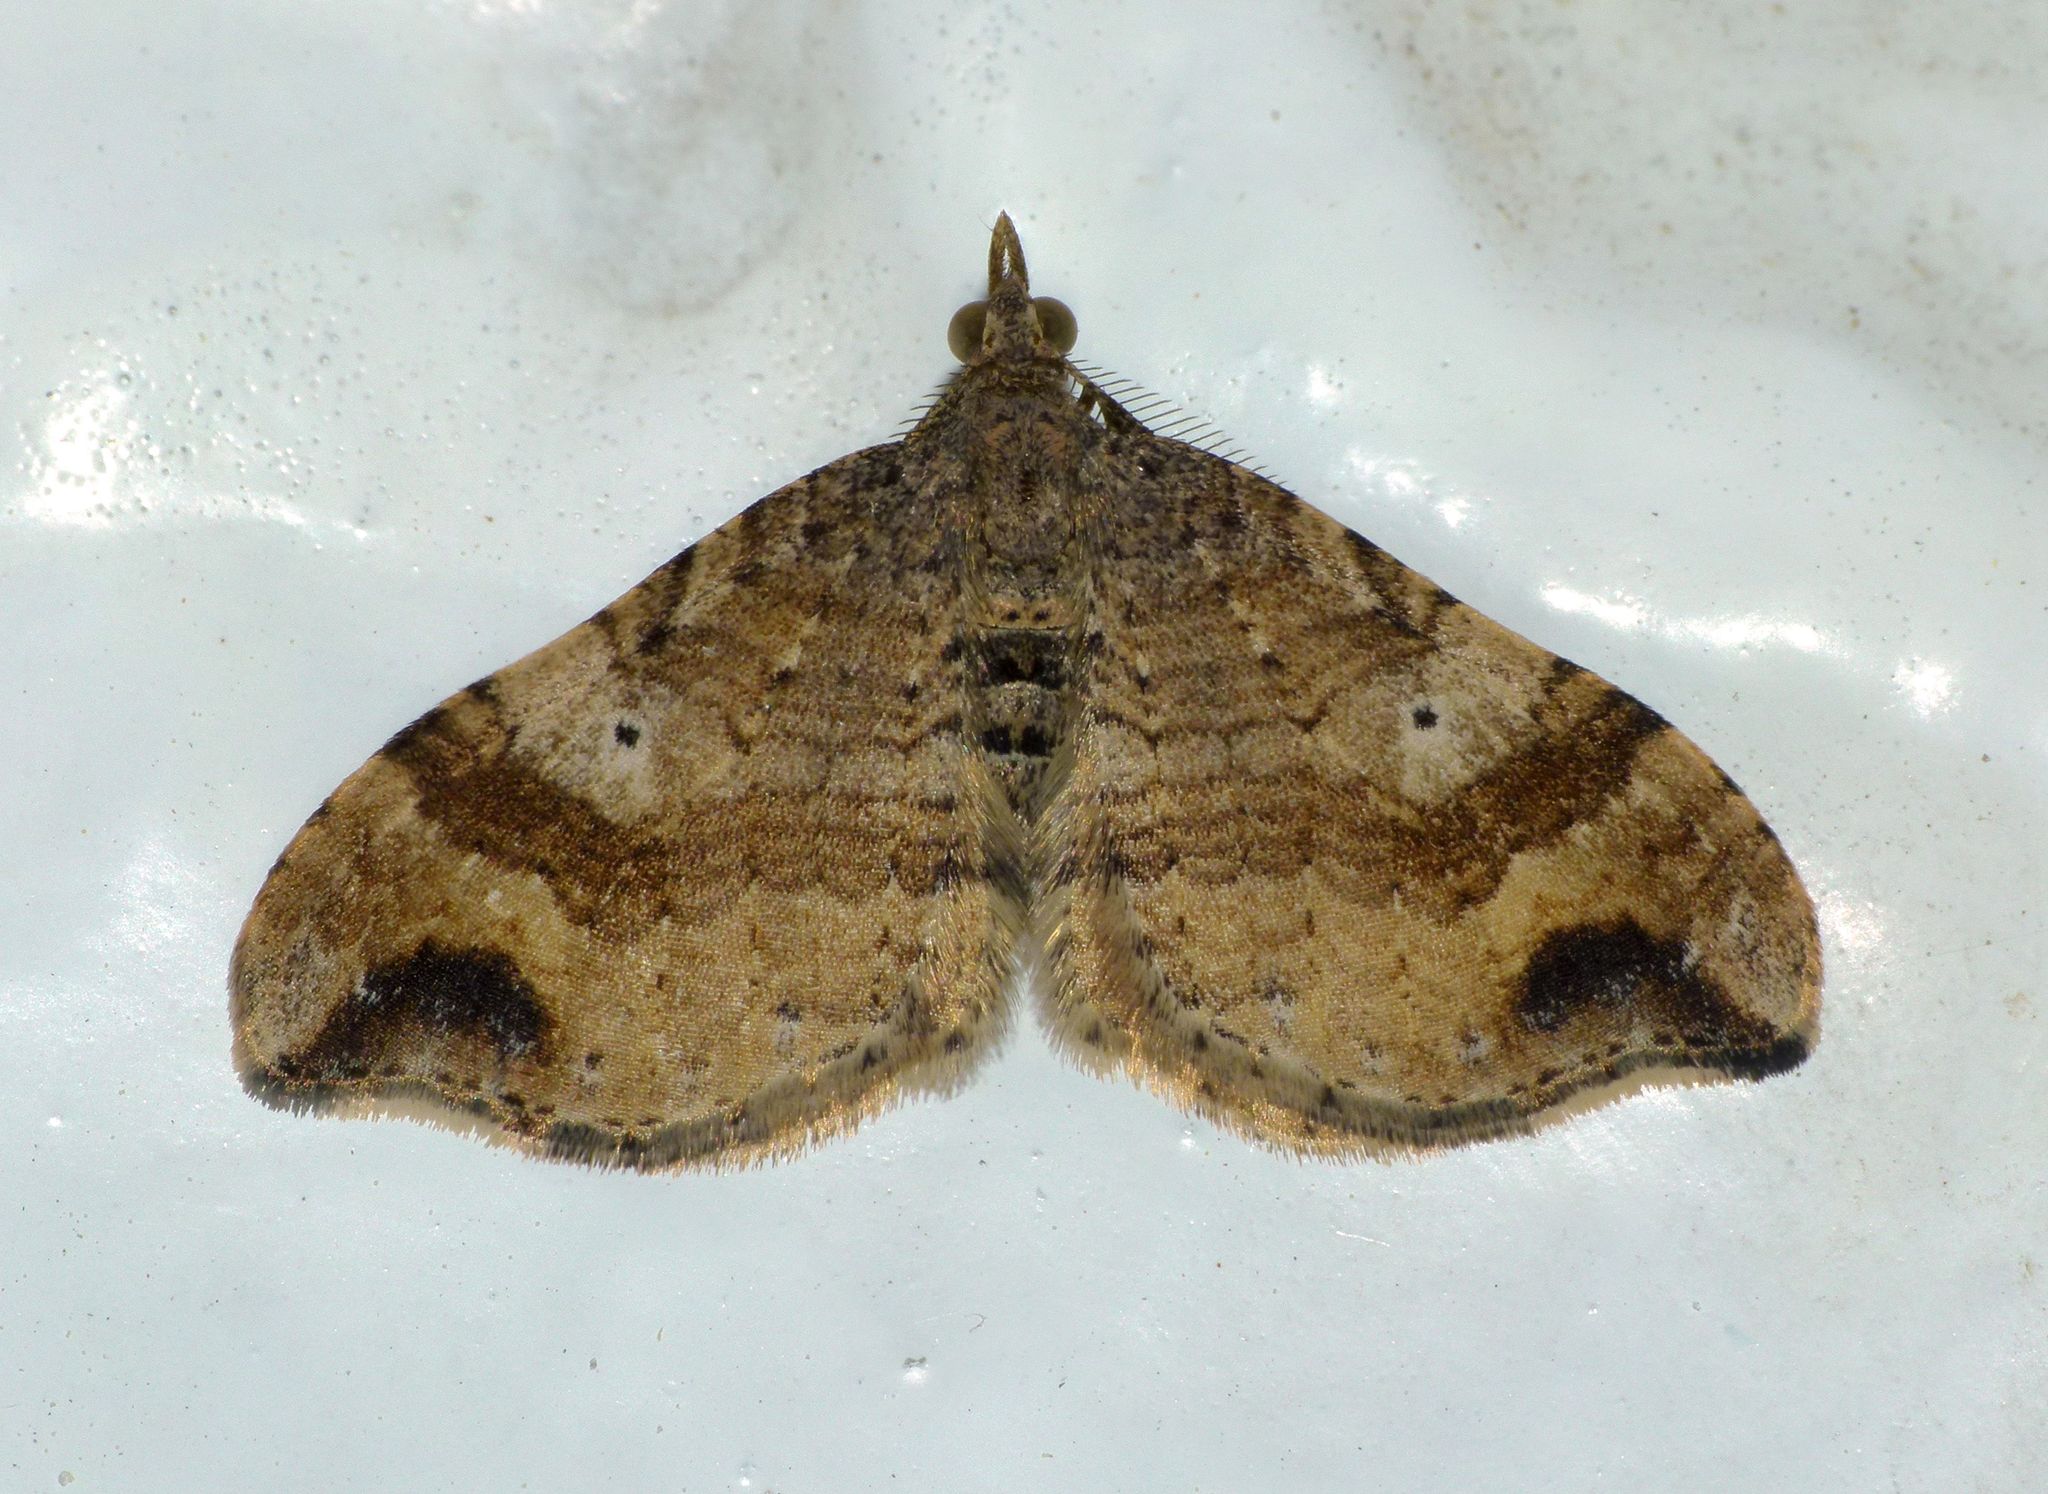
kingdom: Animalia
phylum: Arthropoda
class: Insecta
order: Lepidoptera
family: Geometridae
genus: Homodotis
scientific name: Homodotis megaspilata
